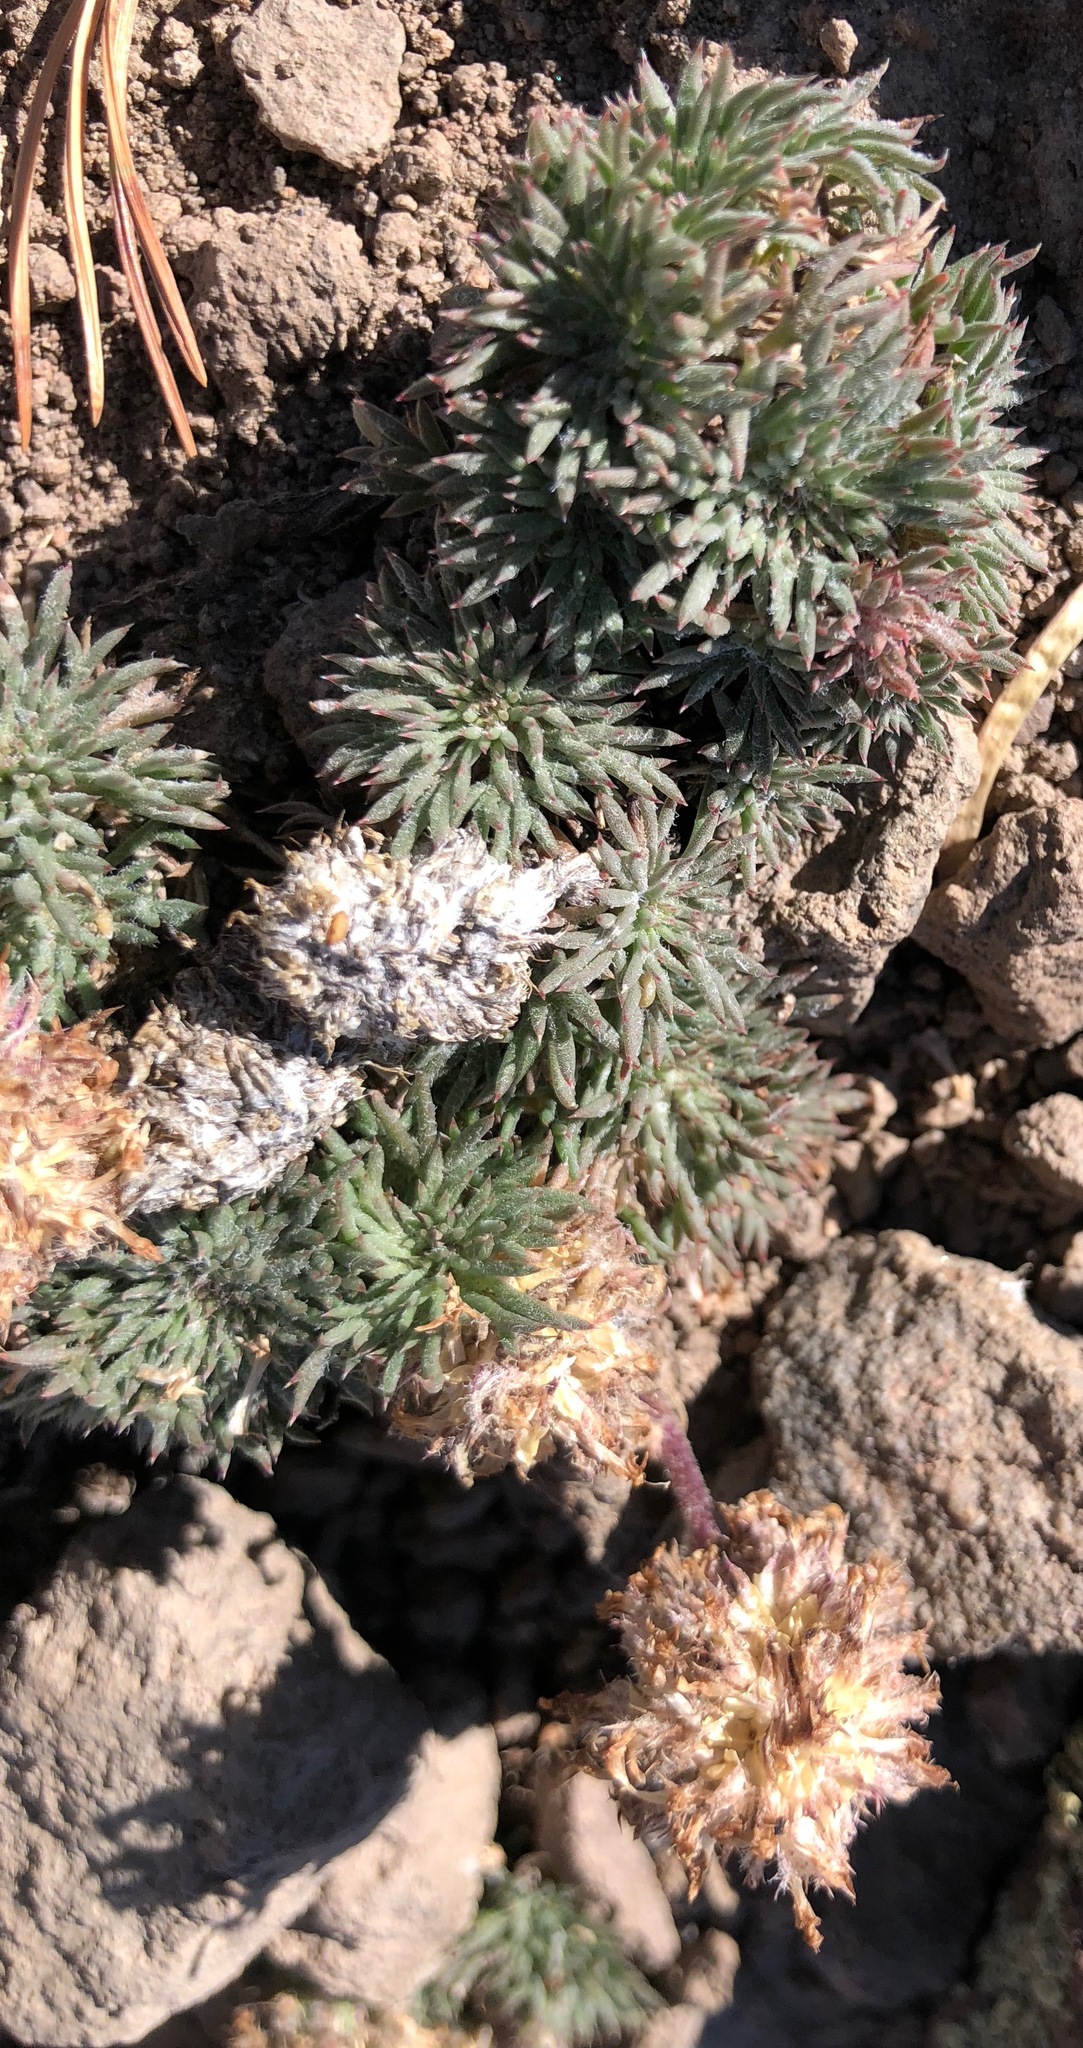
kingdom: Plantae
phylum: Tracheophyta
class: Magnoliopsida
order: Ericales
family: Polemoniaceae
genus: Ipomopsis
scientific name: Ipomopsis congesta
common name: Ball-head gilia
